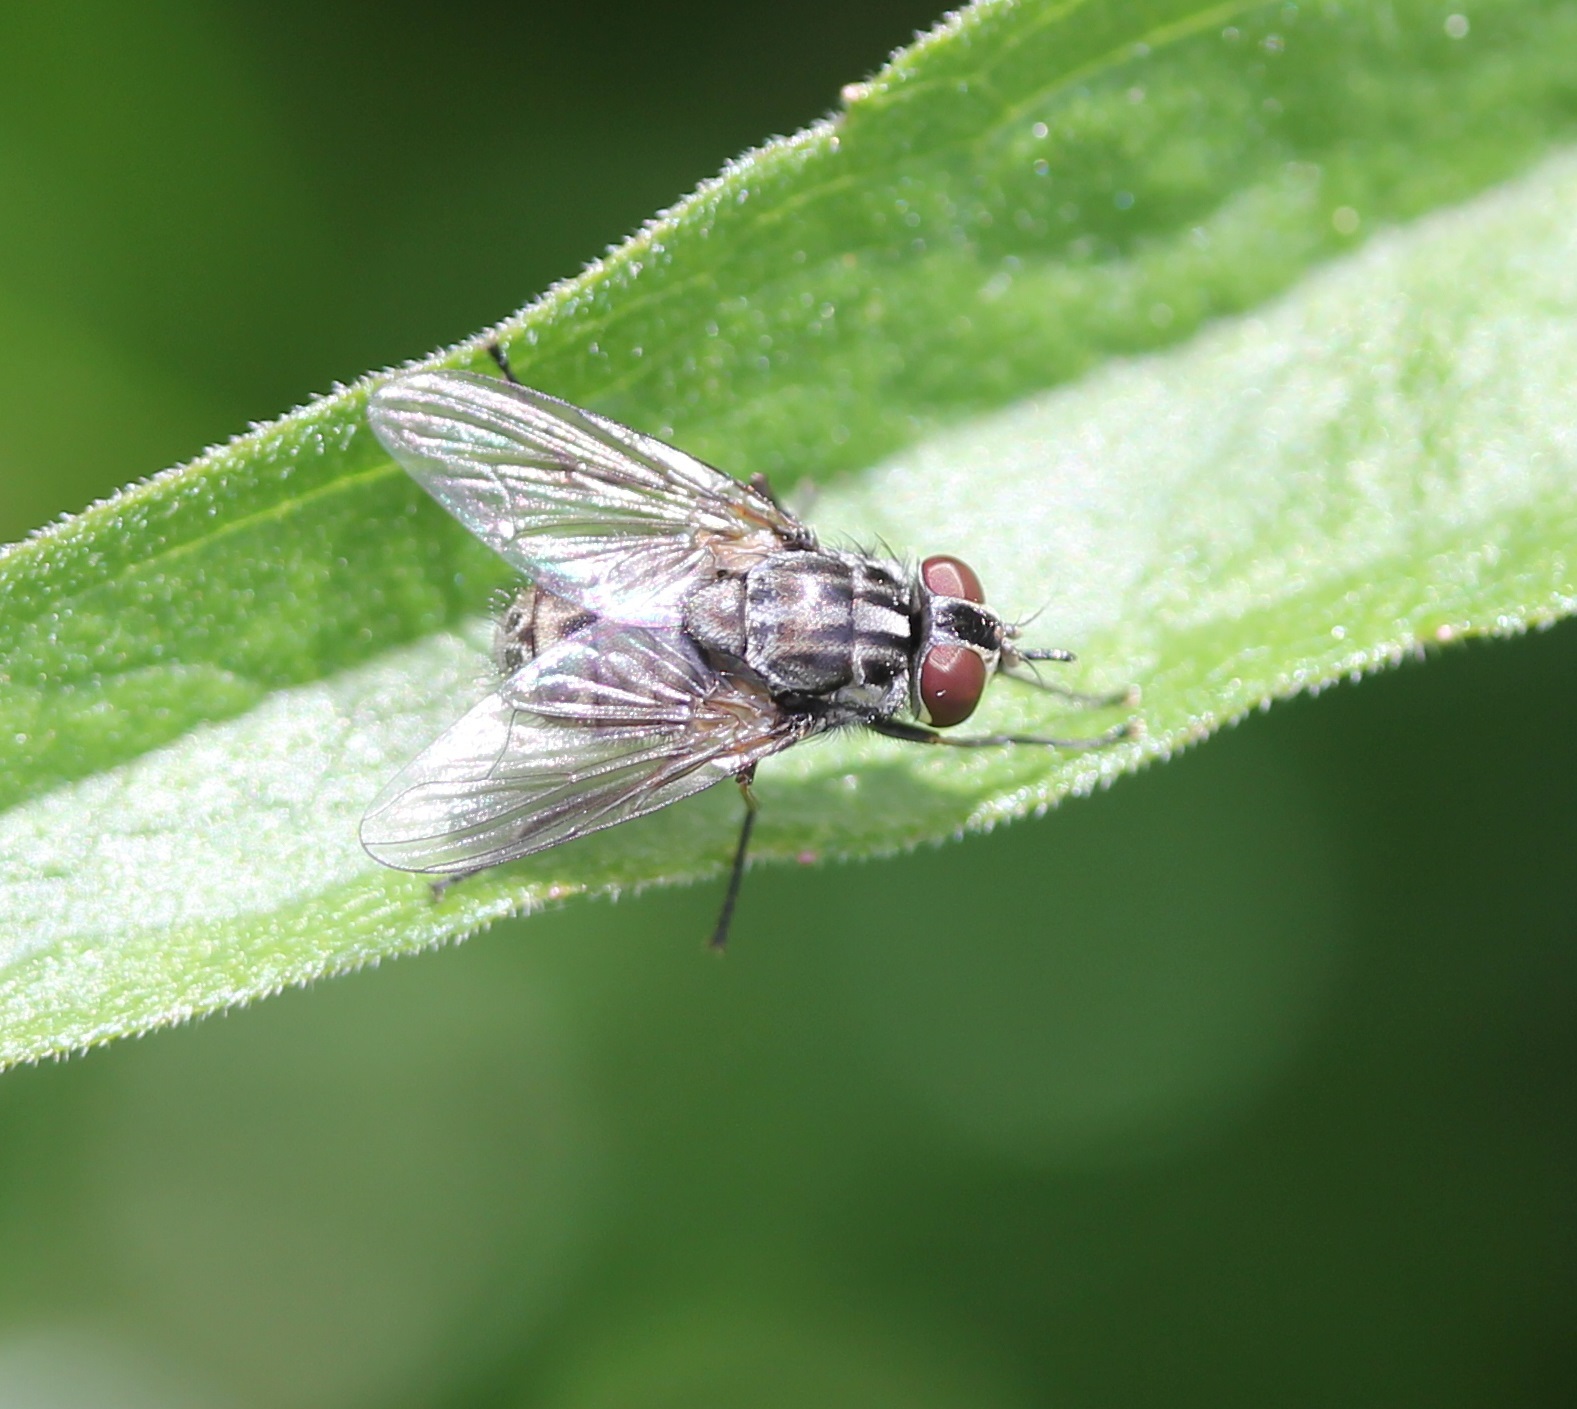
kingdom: Animalia
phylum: Arthropoda
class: Insecta
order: Diptera
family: Muscidae
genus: Stomoxys
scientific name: Stomoxys calcitrans
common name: Stable fly
